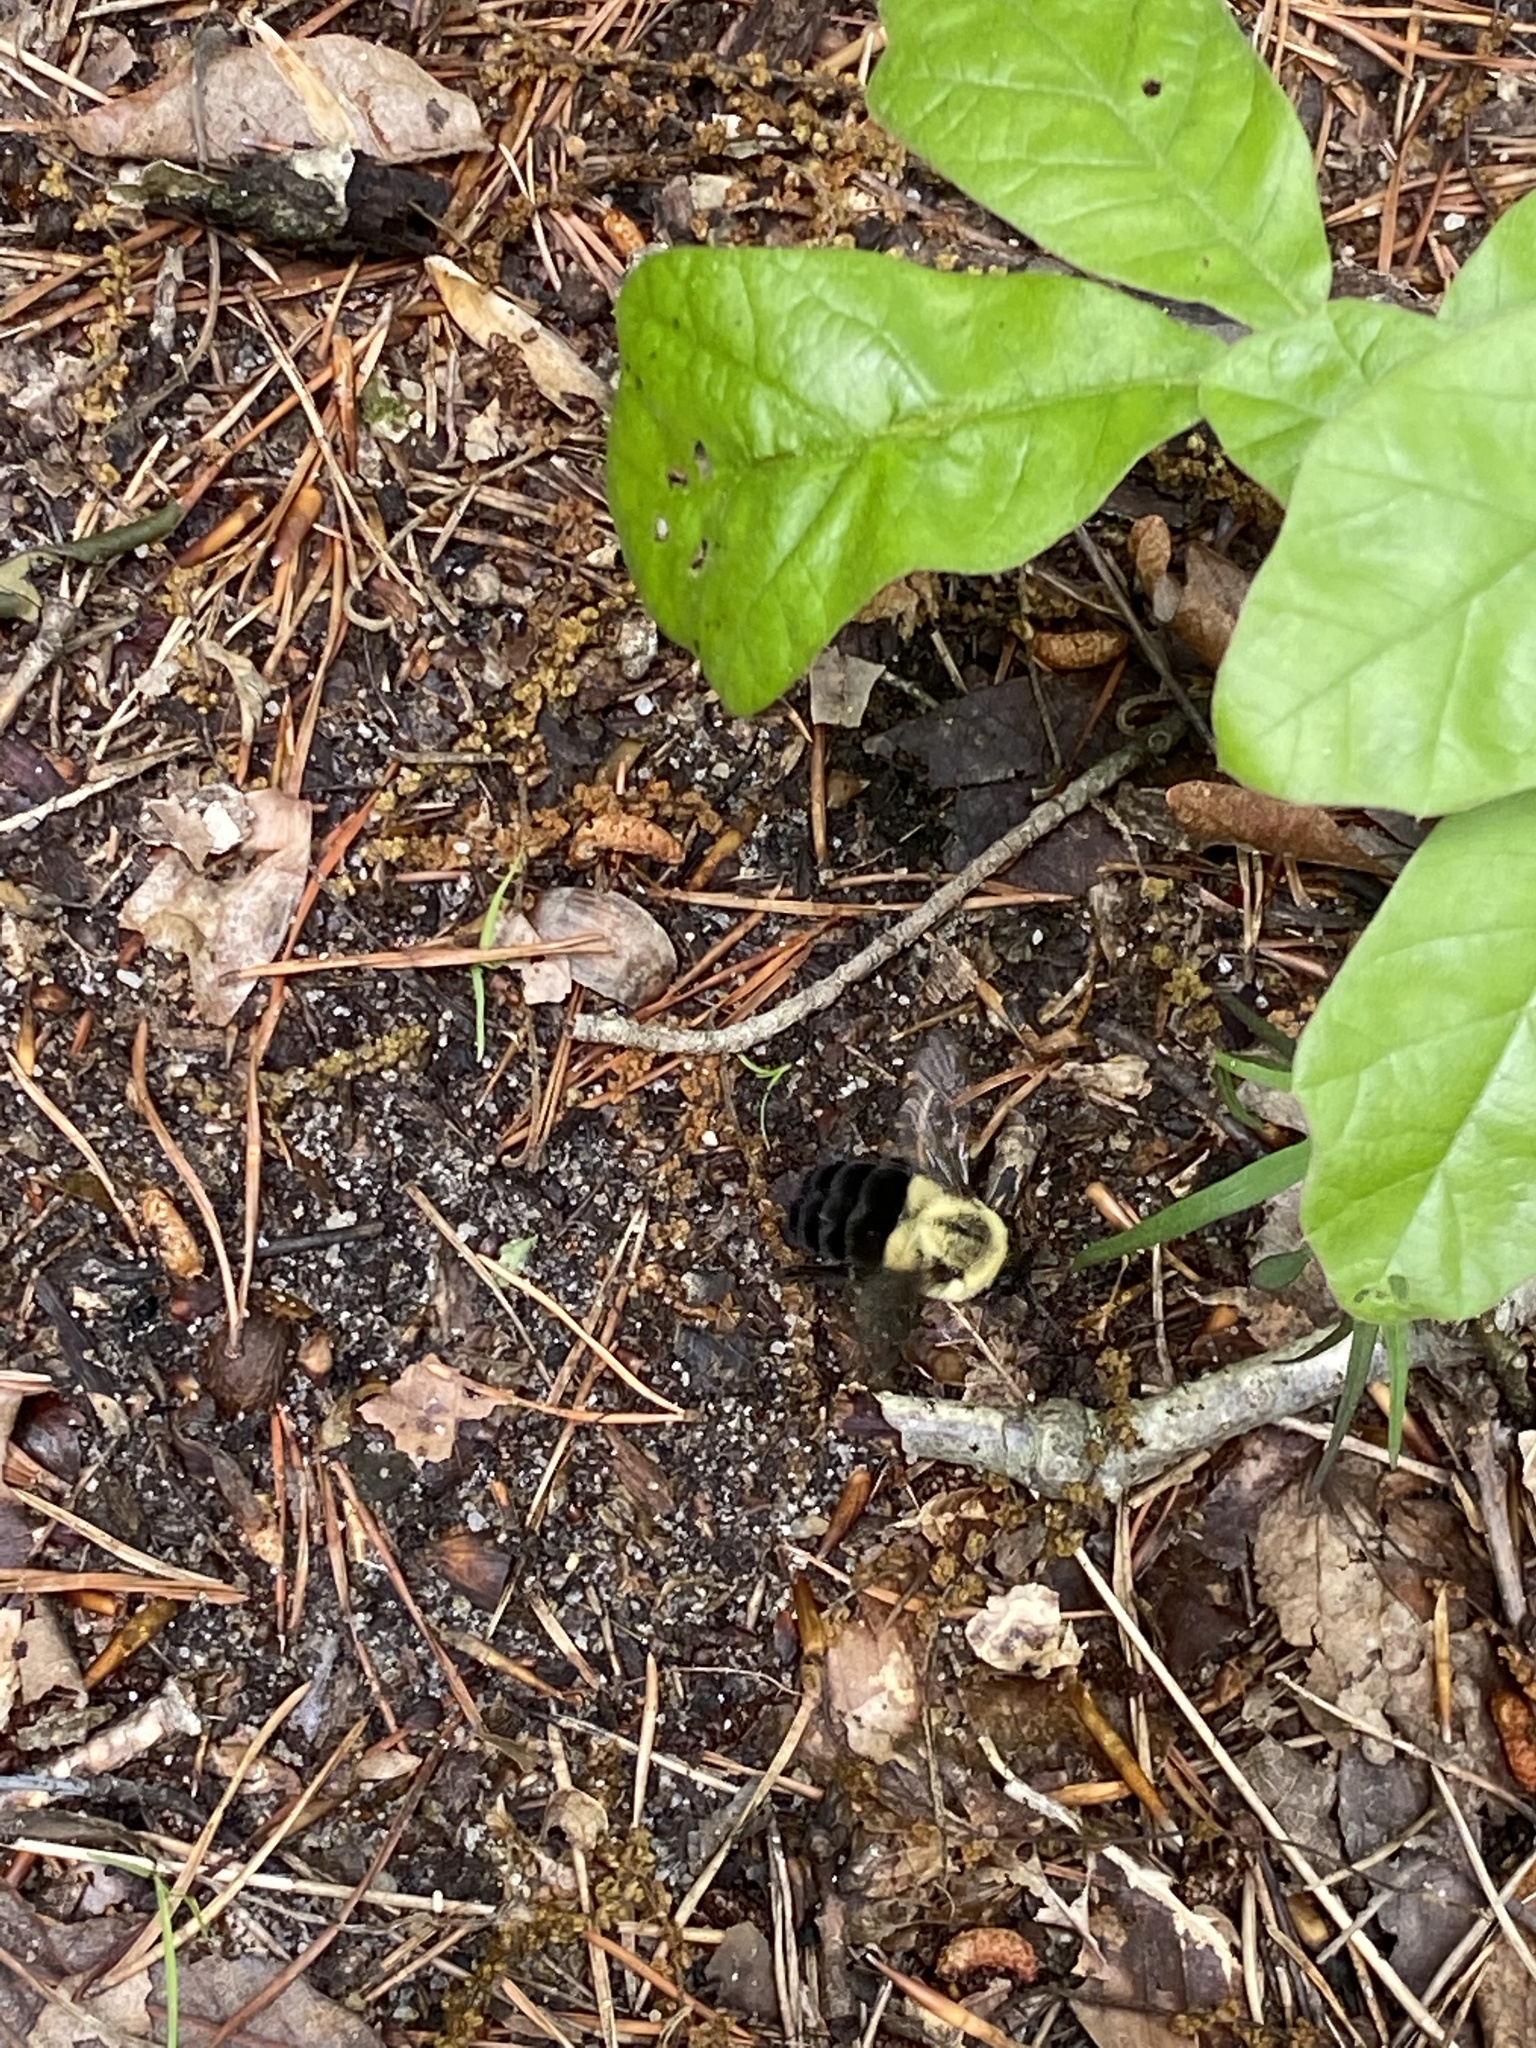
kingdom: Animalia
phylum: Arthropoda
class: Insecta
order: Hymenoptera
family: Apidae
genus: Bombus
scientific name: Bombus impatiens
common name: Common eastern bumble bee
